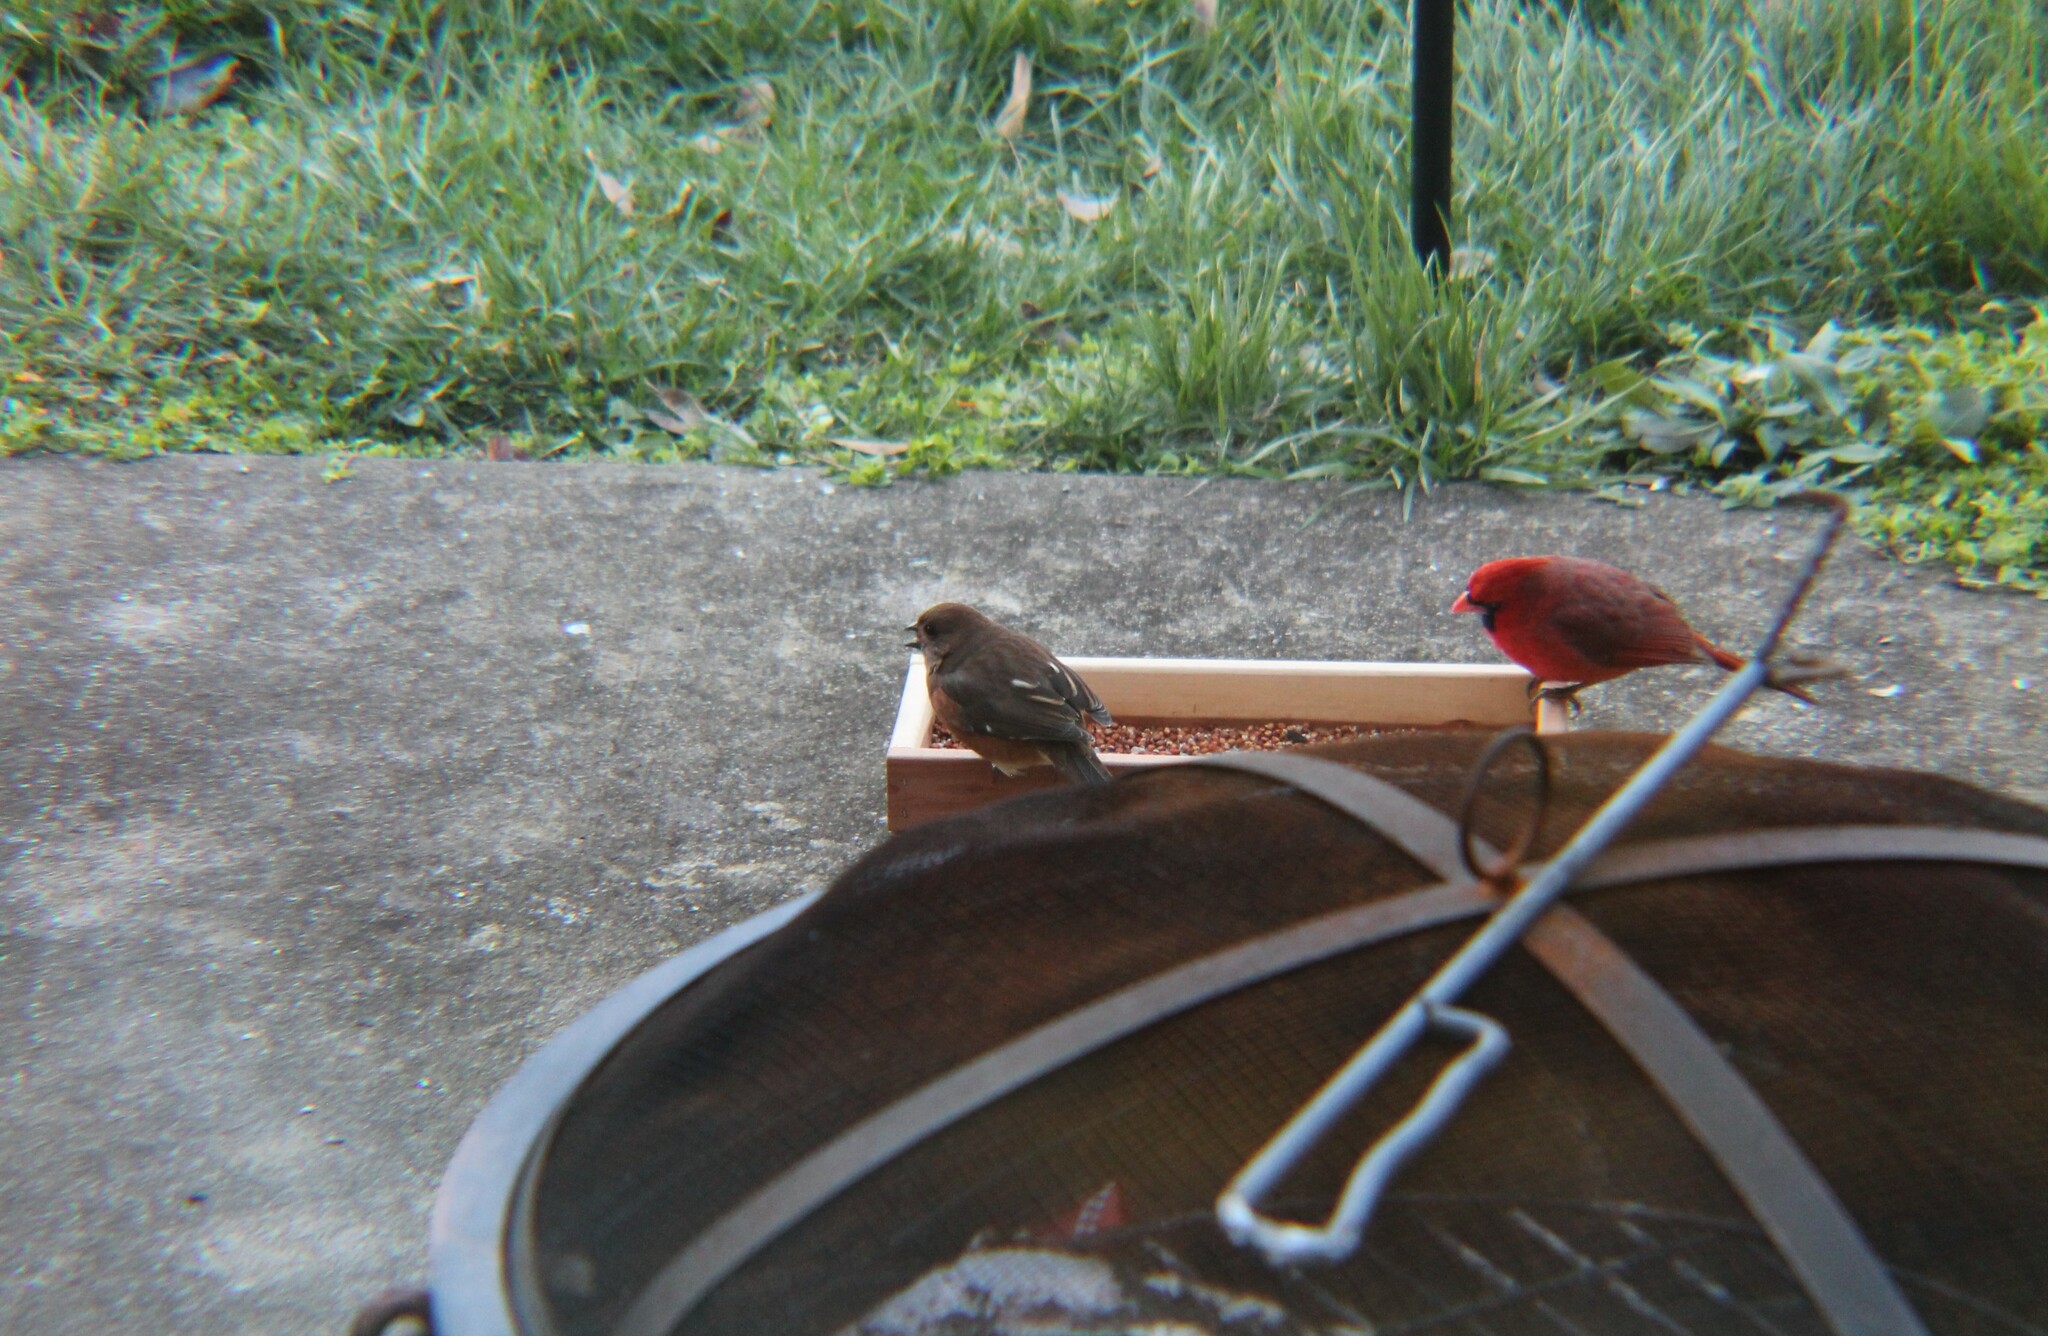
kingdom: Animalia
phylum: Chordata
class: Aves
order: Passeriformes
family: Passerellidae
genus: Pipilo
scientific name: Pipilo erythrophthalmus
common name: Eastern towhee
